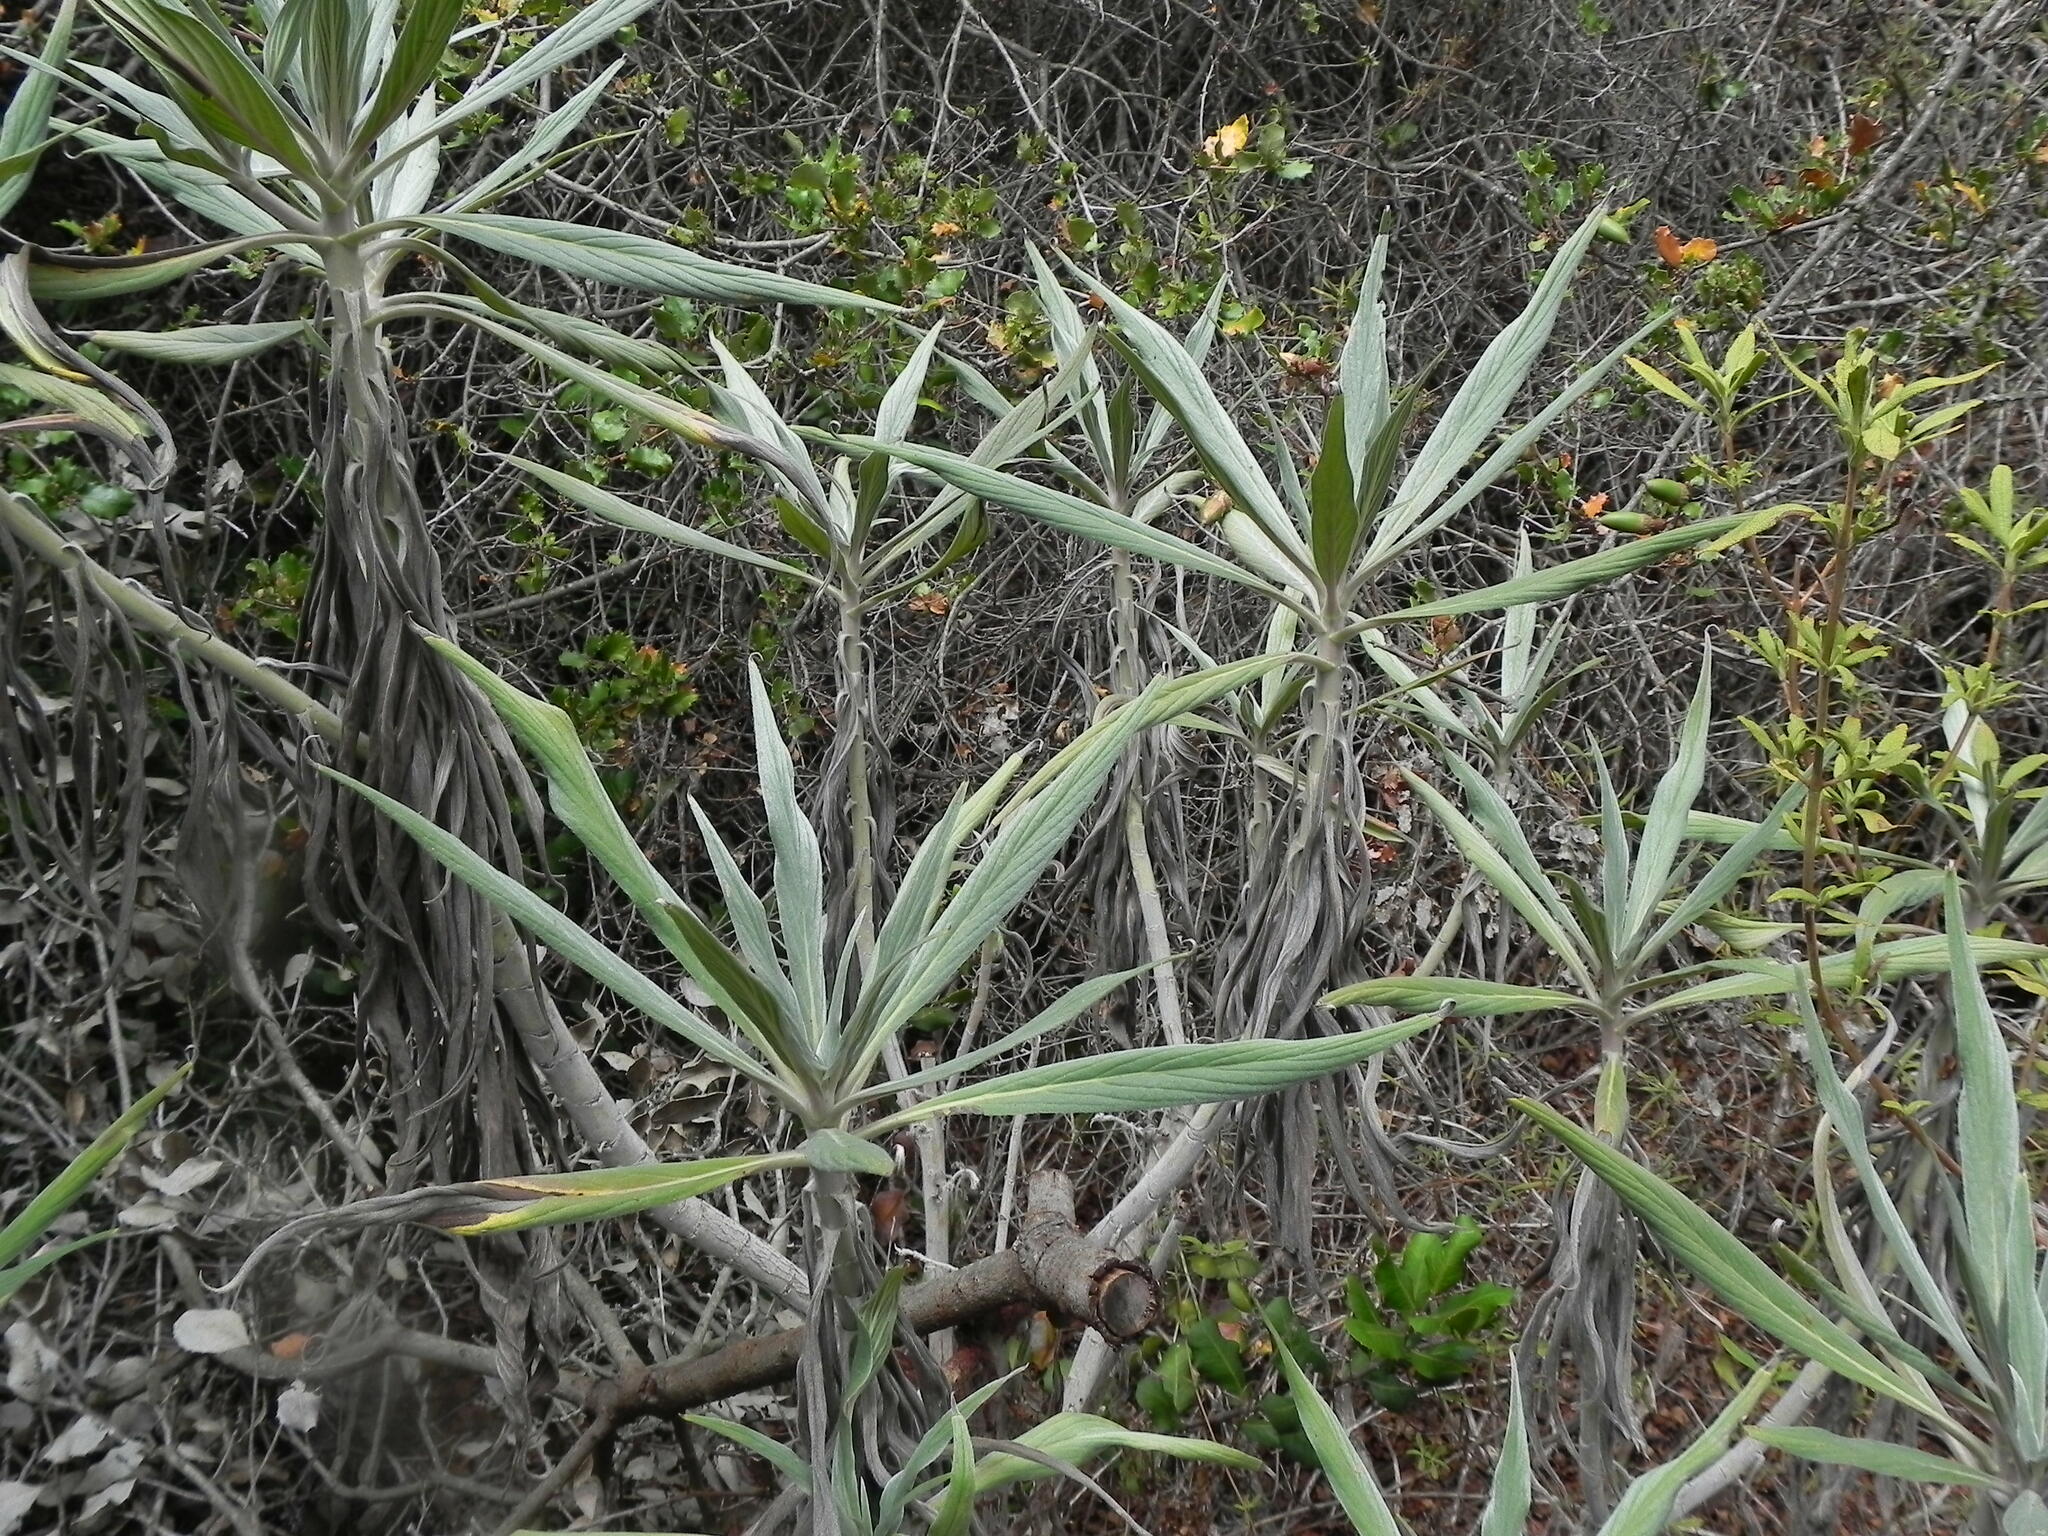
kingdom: Plantae
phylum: Tracheophyta
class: Magnoliopsida
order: Boraginales
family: Boraginaceae
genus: Echium
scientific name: Echium candicans
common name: Pride of madeira
